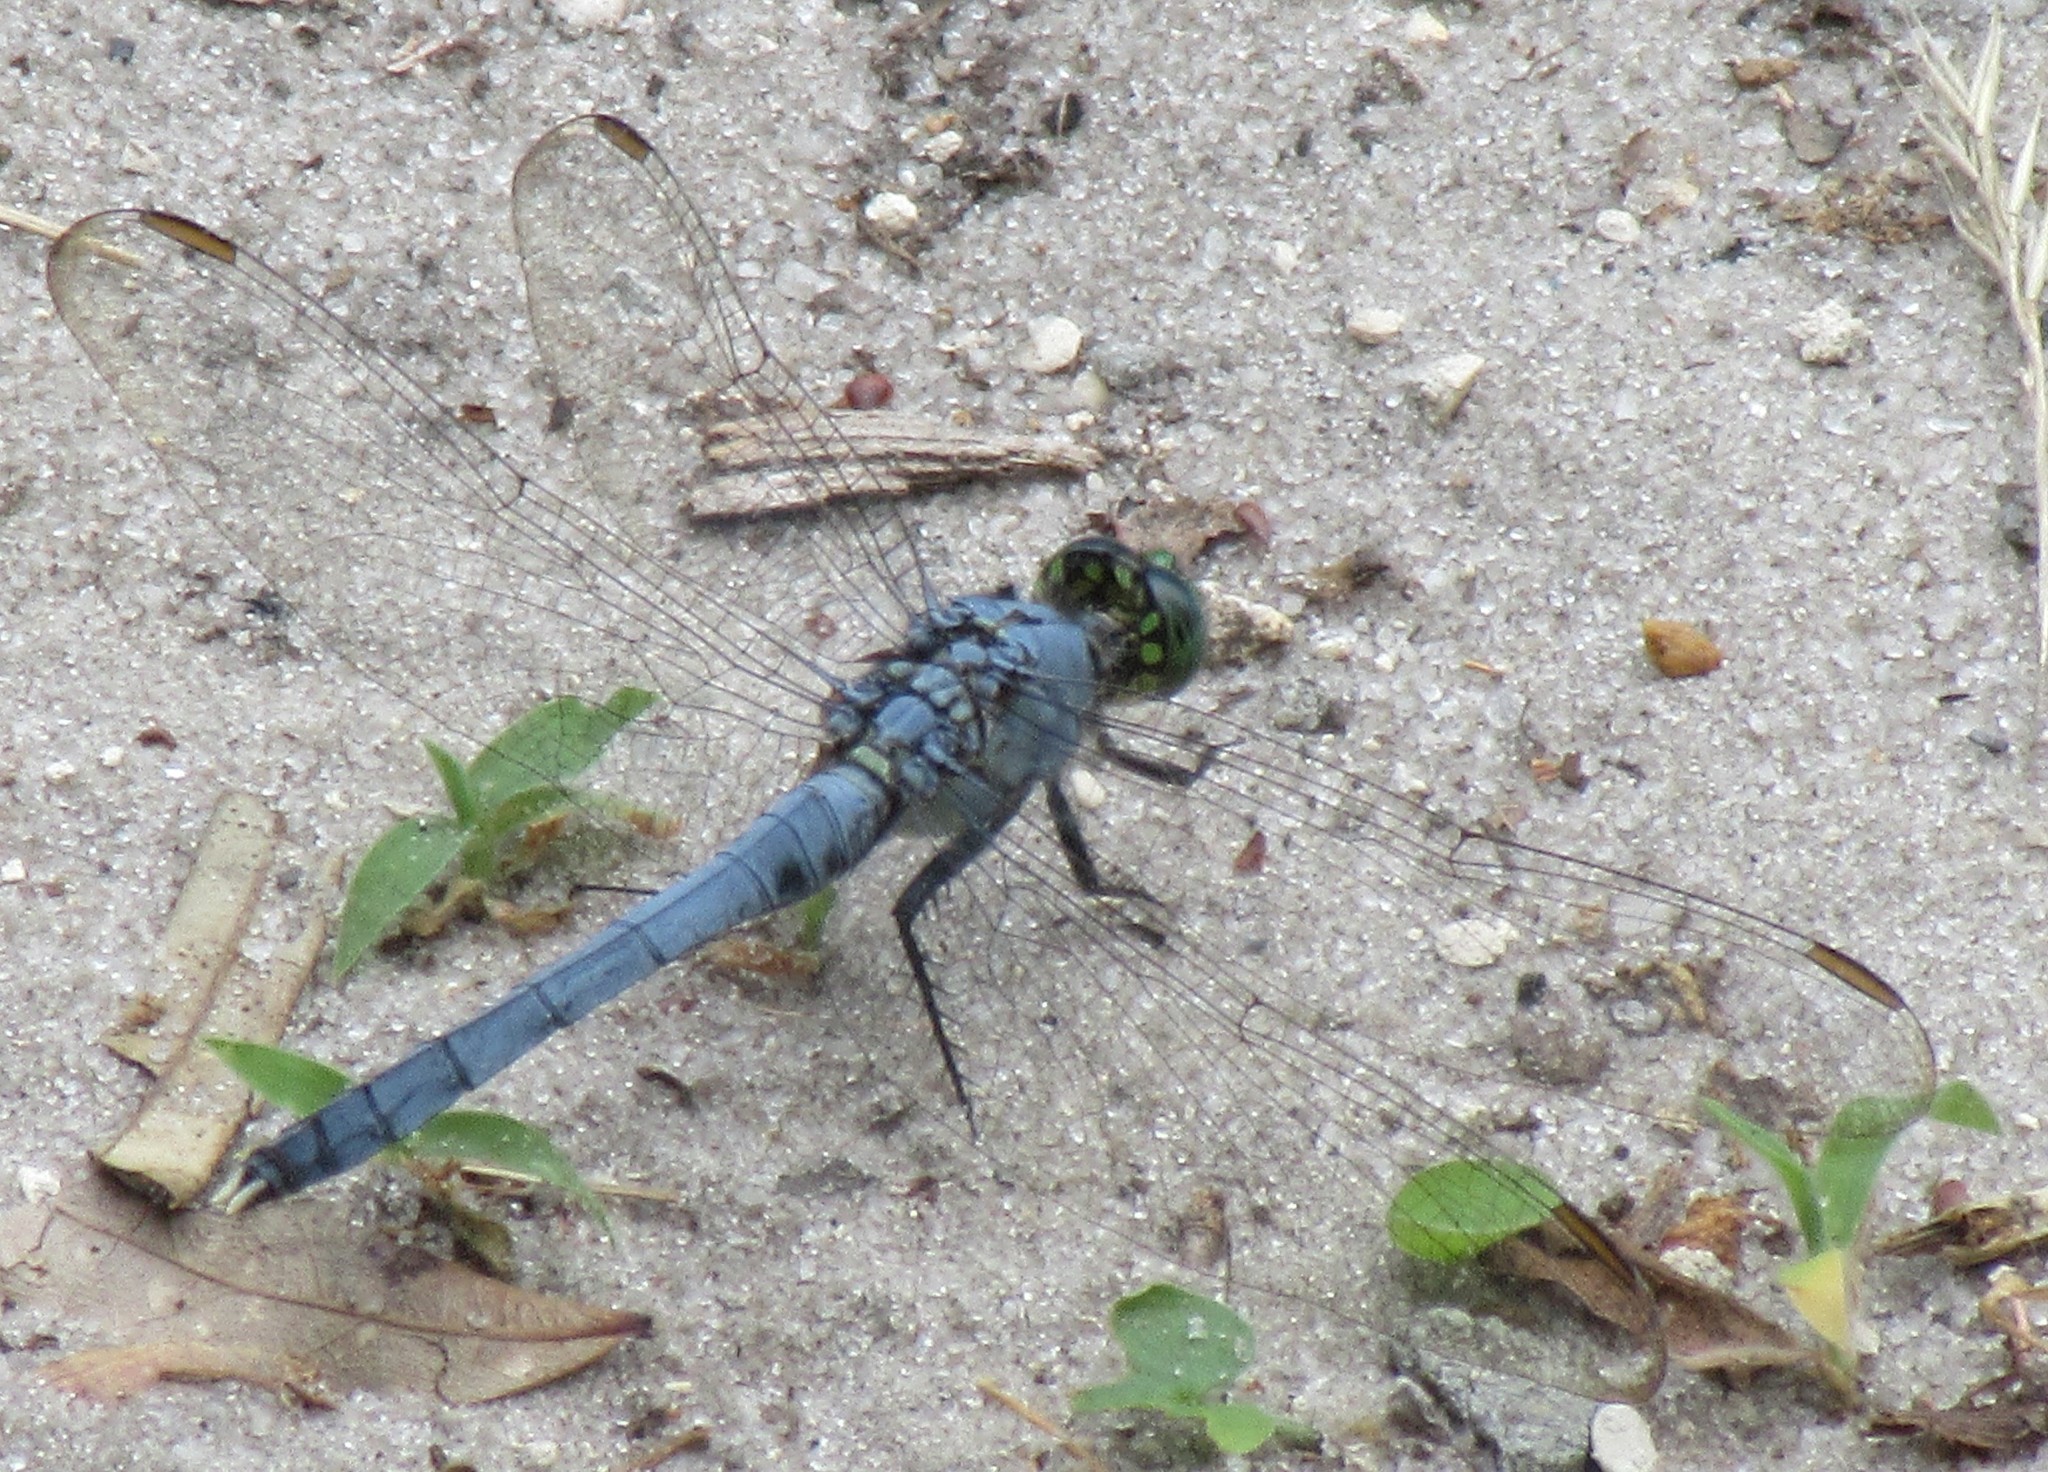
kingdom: Animalia
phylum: Arthropoda
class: Insecta
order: Odonata
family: Libellulidae
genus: Erythemis
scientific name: Erythemis simplicicollis
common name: Eastern pondhawk
